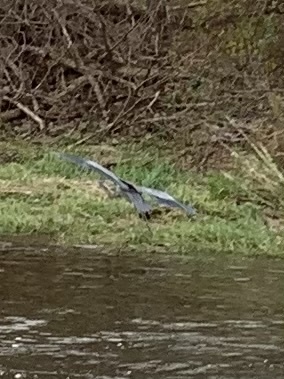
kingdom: Animalia
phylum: Chordata
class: Aves
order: Pelecaniformes
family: Ardeidae
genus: Ardea
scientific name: Ardea herodias
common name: Great blue heron
